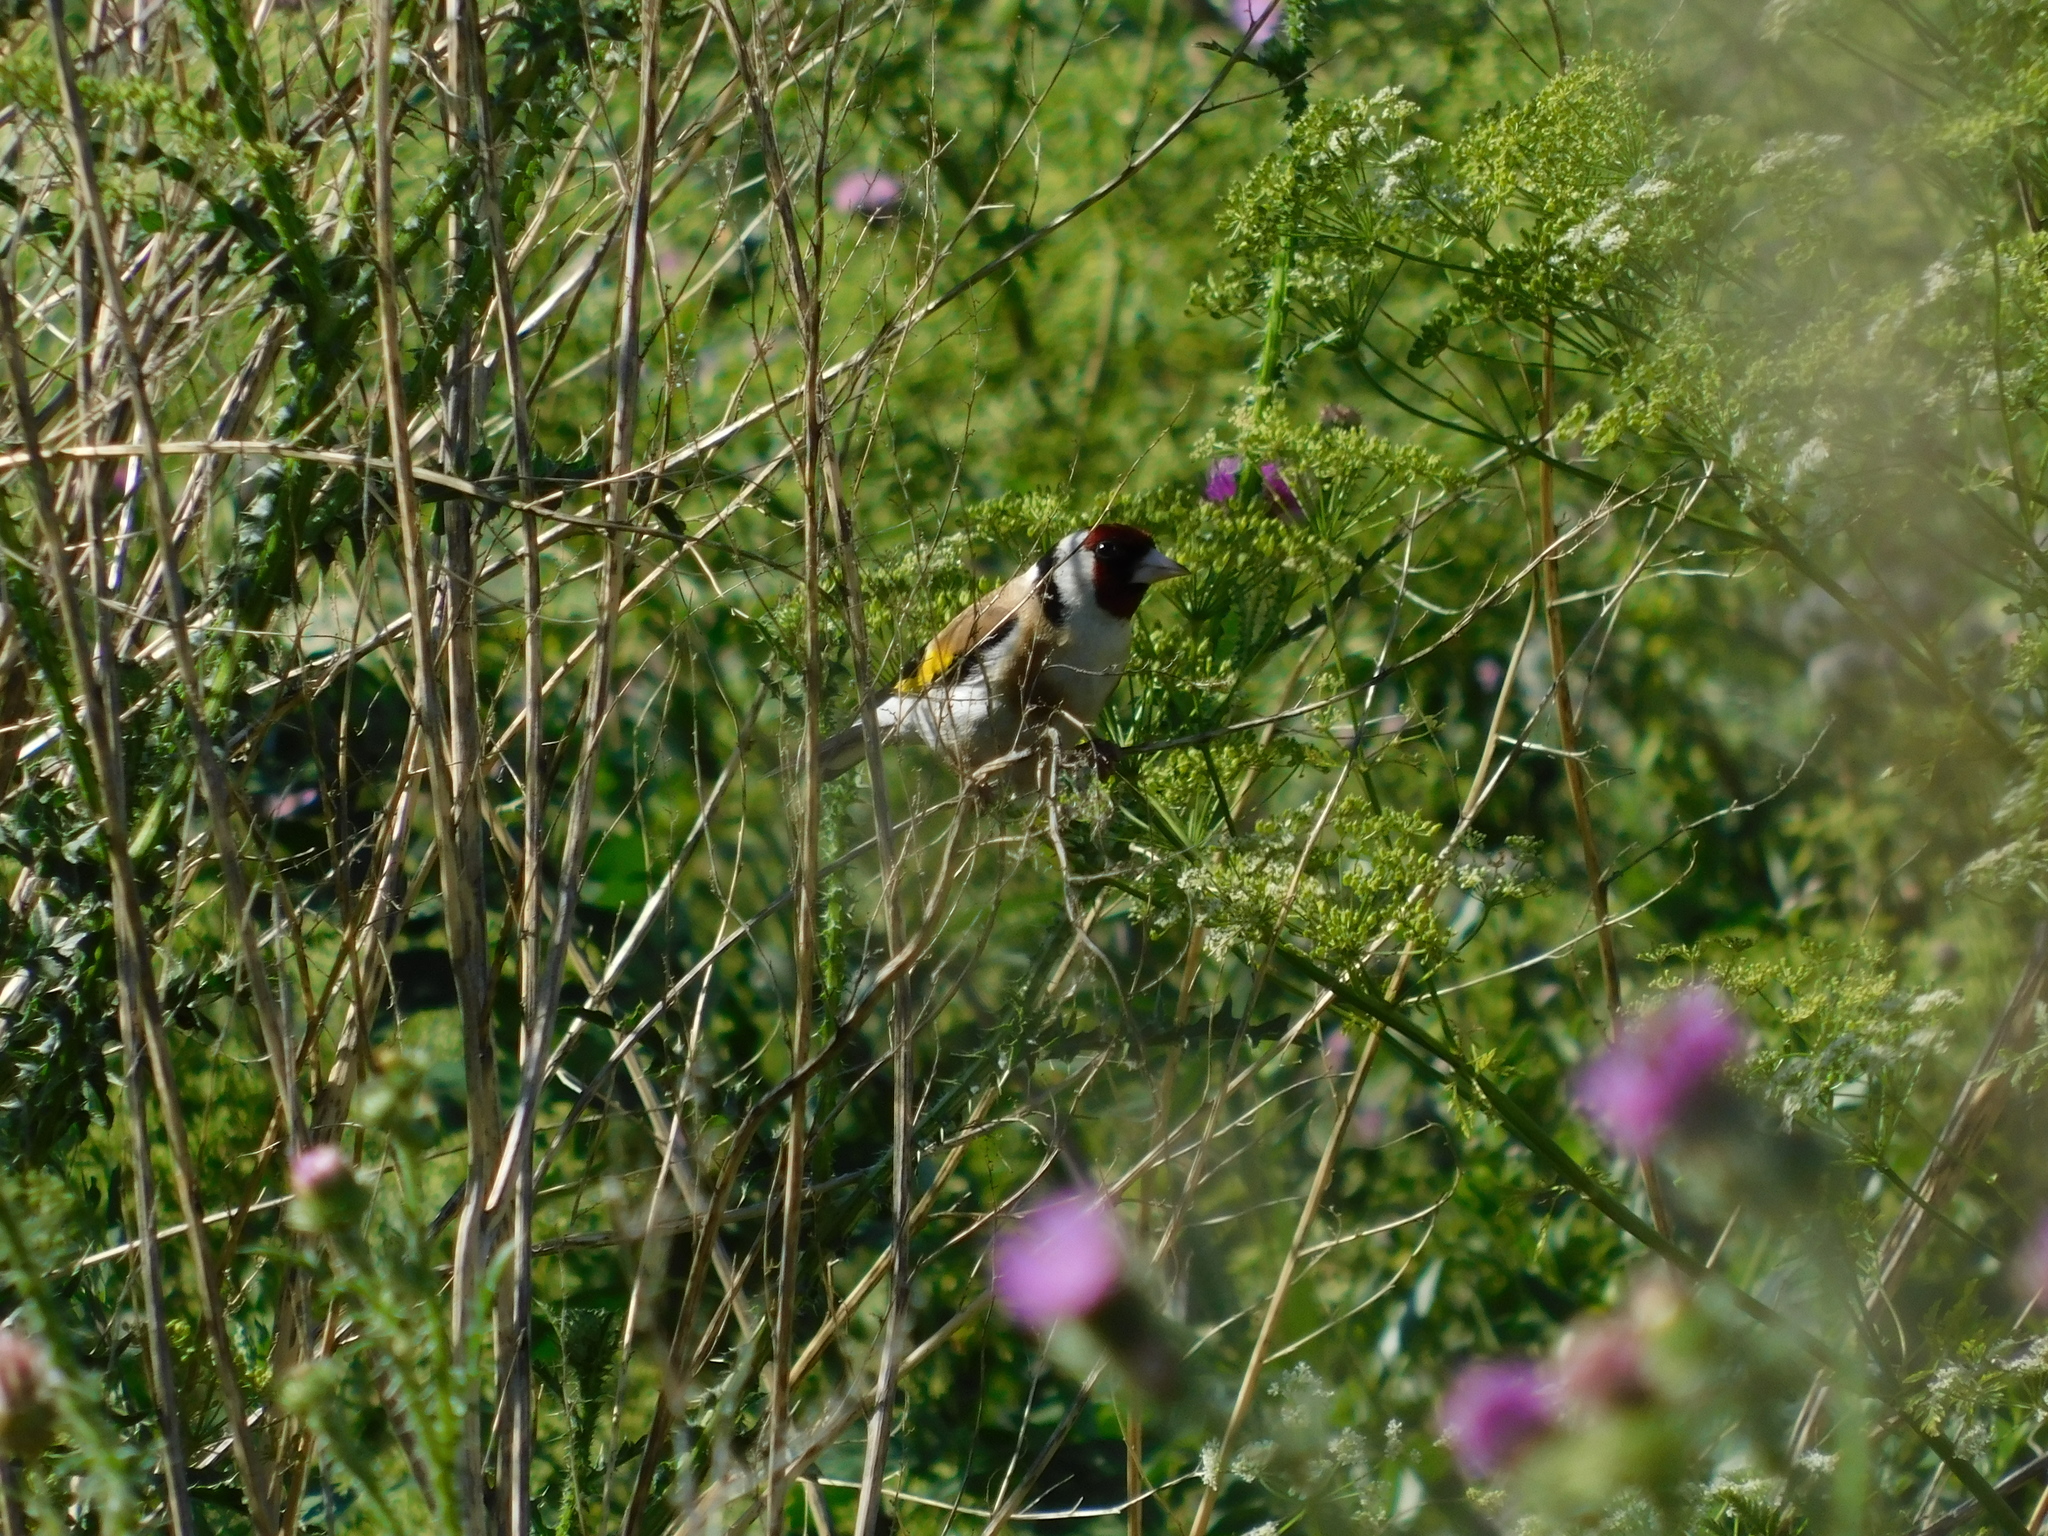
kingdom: Animalia
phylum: Chordata
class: Aves
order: Passeriformes
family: Fringillidae
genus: Carduelis
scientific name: Carduelis carduelis
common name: European goldfinch
